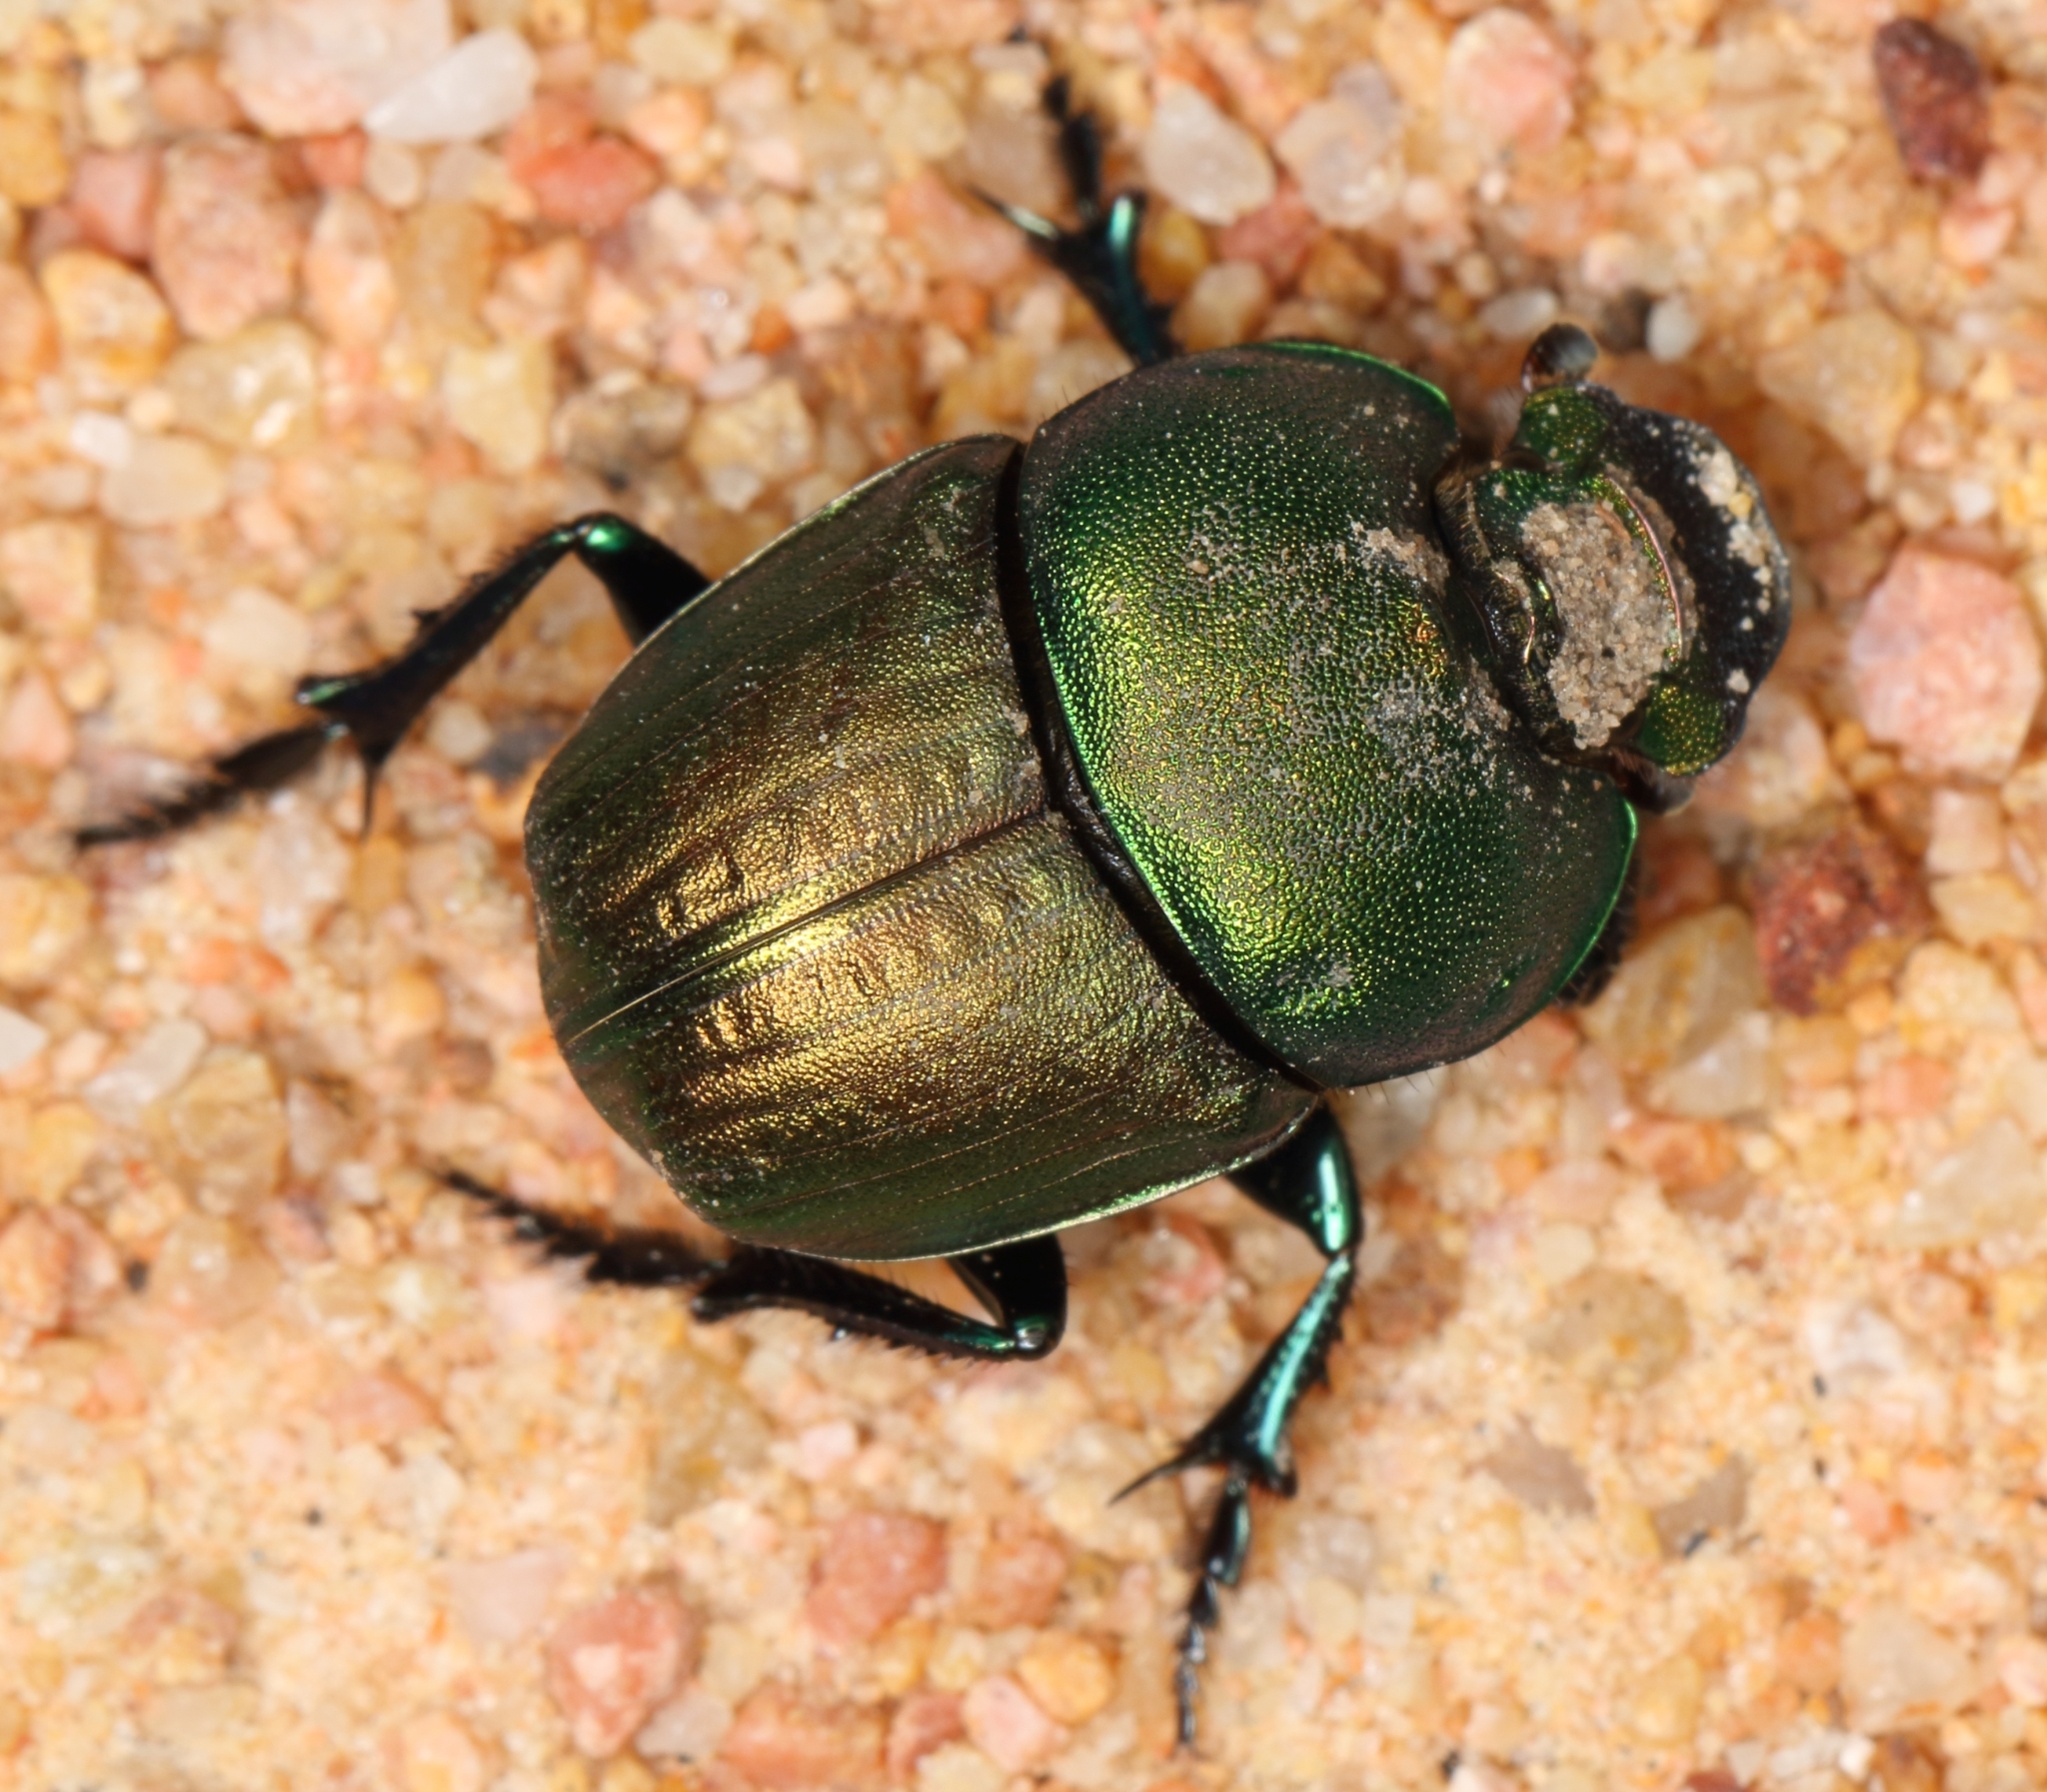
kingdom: Animalia
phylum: Arthropoda
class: Insecta
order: Coleoptera
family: Scarabaeidae
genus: Phalops
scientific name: Phalops ardea
